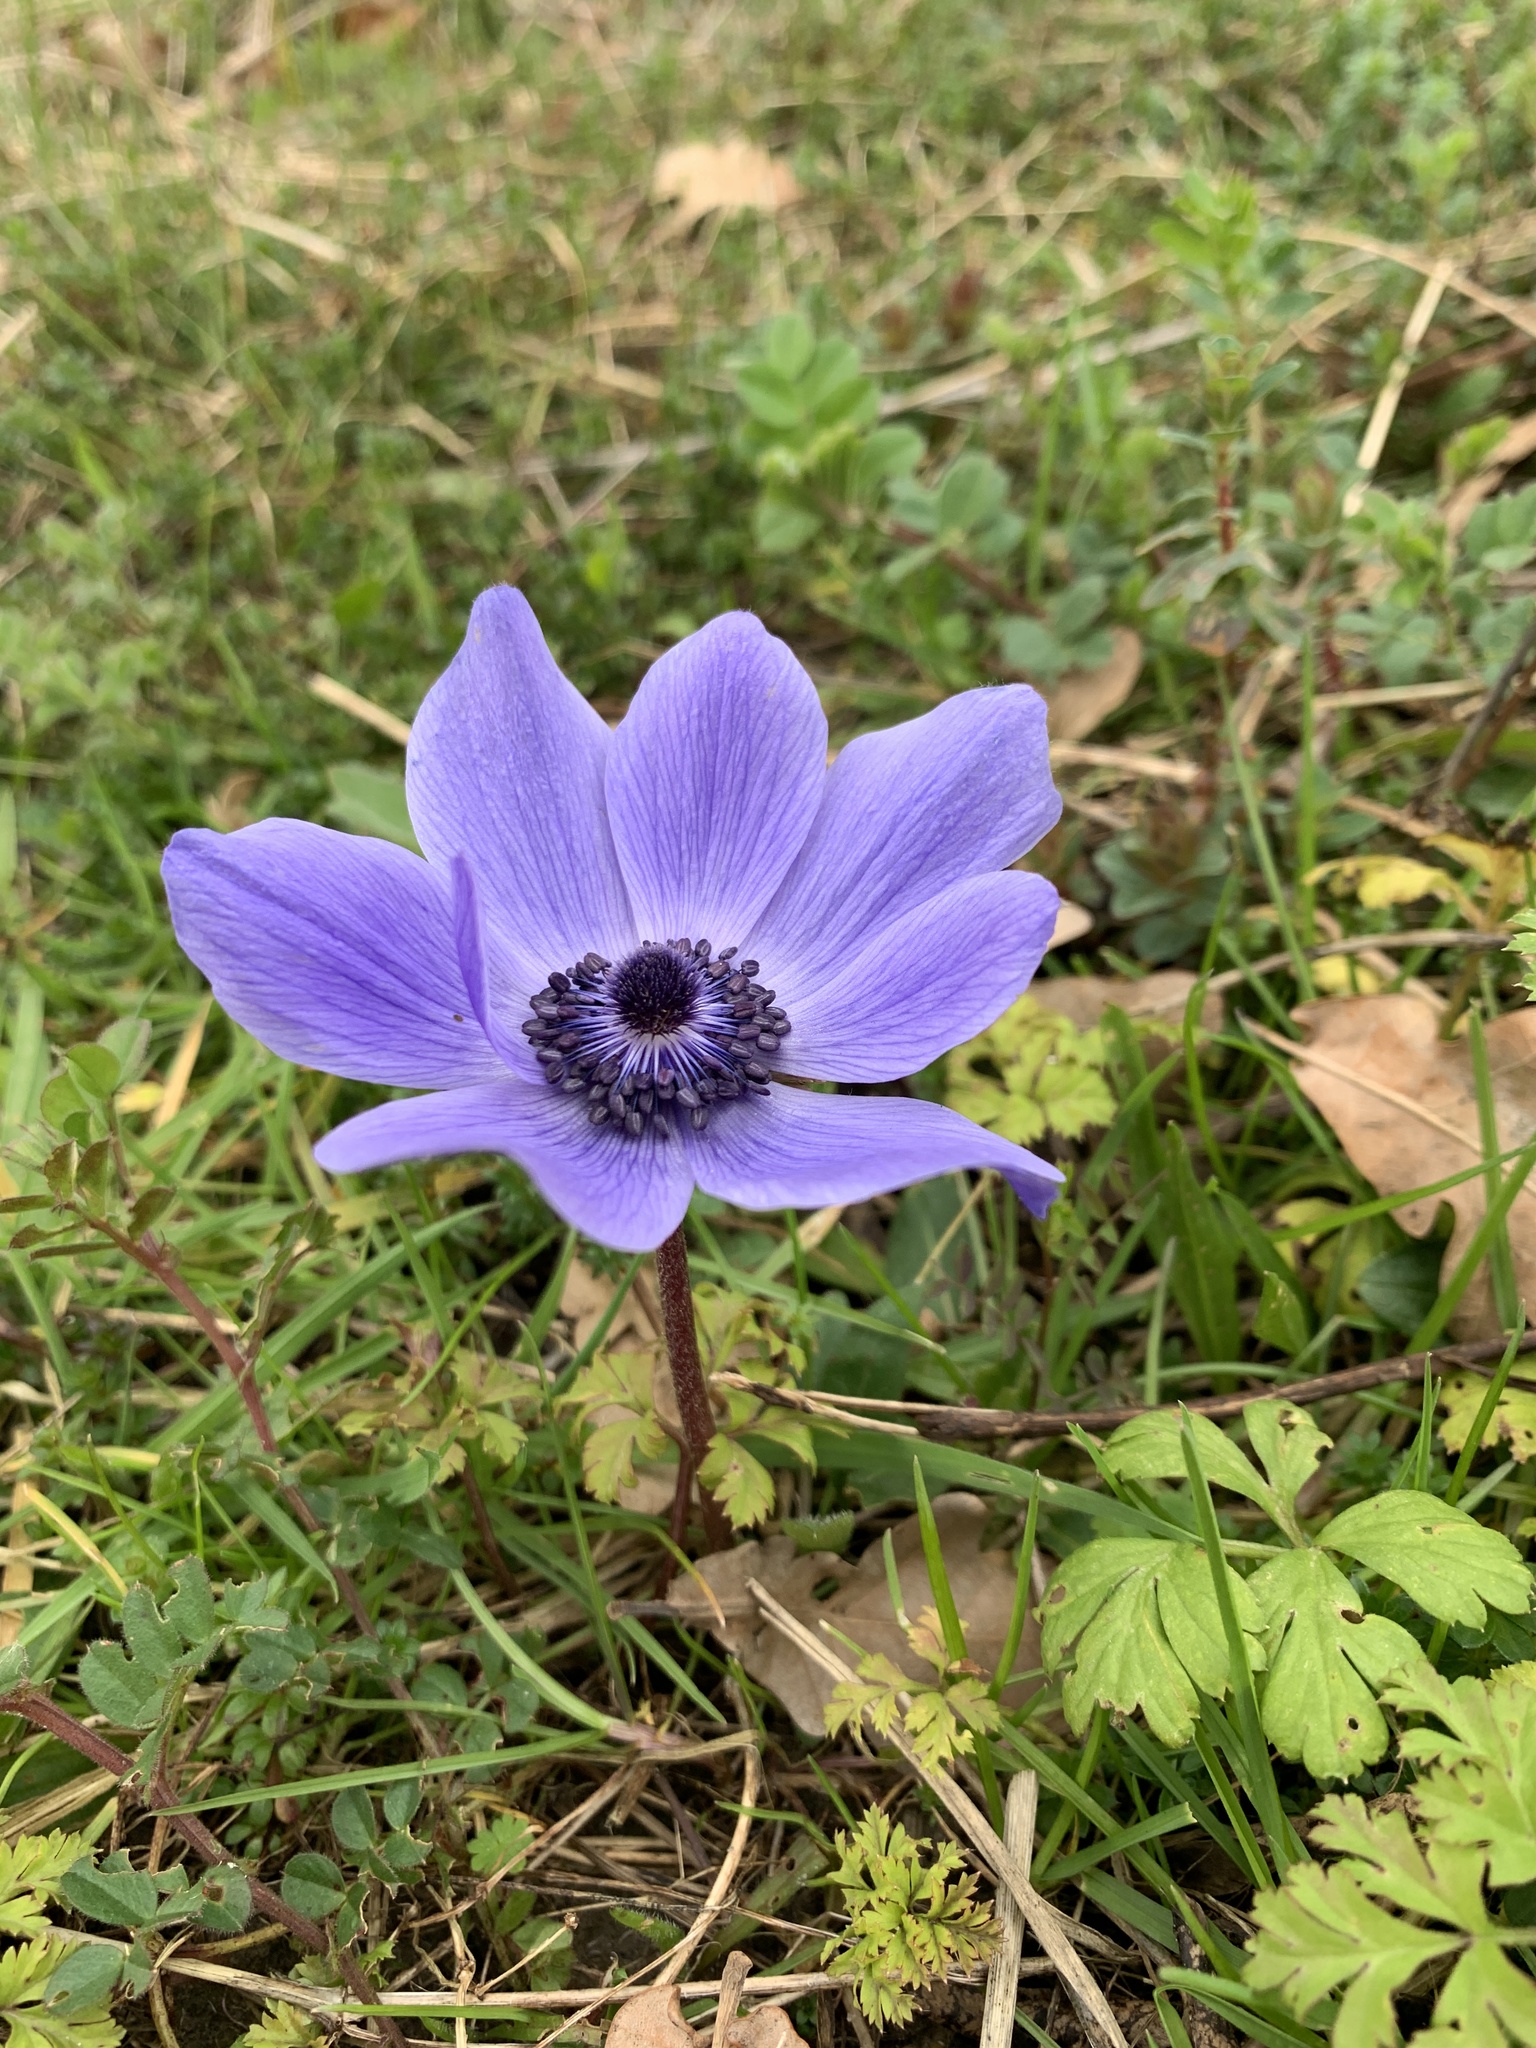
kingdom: Plantae
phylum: Tracheophyta
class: Magnoliopsida
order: Ranunculales
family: Ranunculaceae
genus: Anemone
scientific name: Anemone coronaria
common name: Poppy anemone
